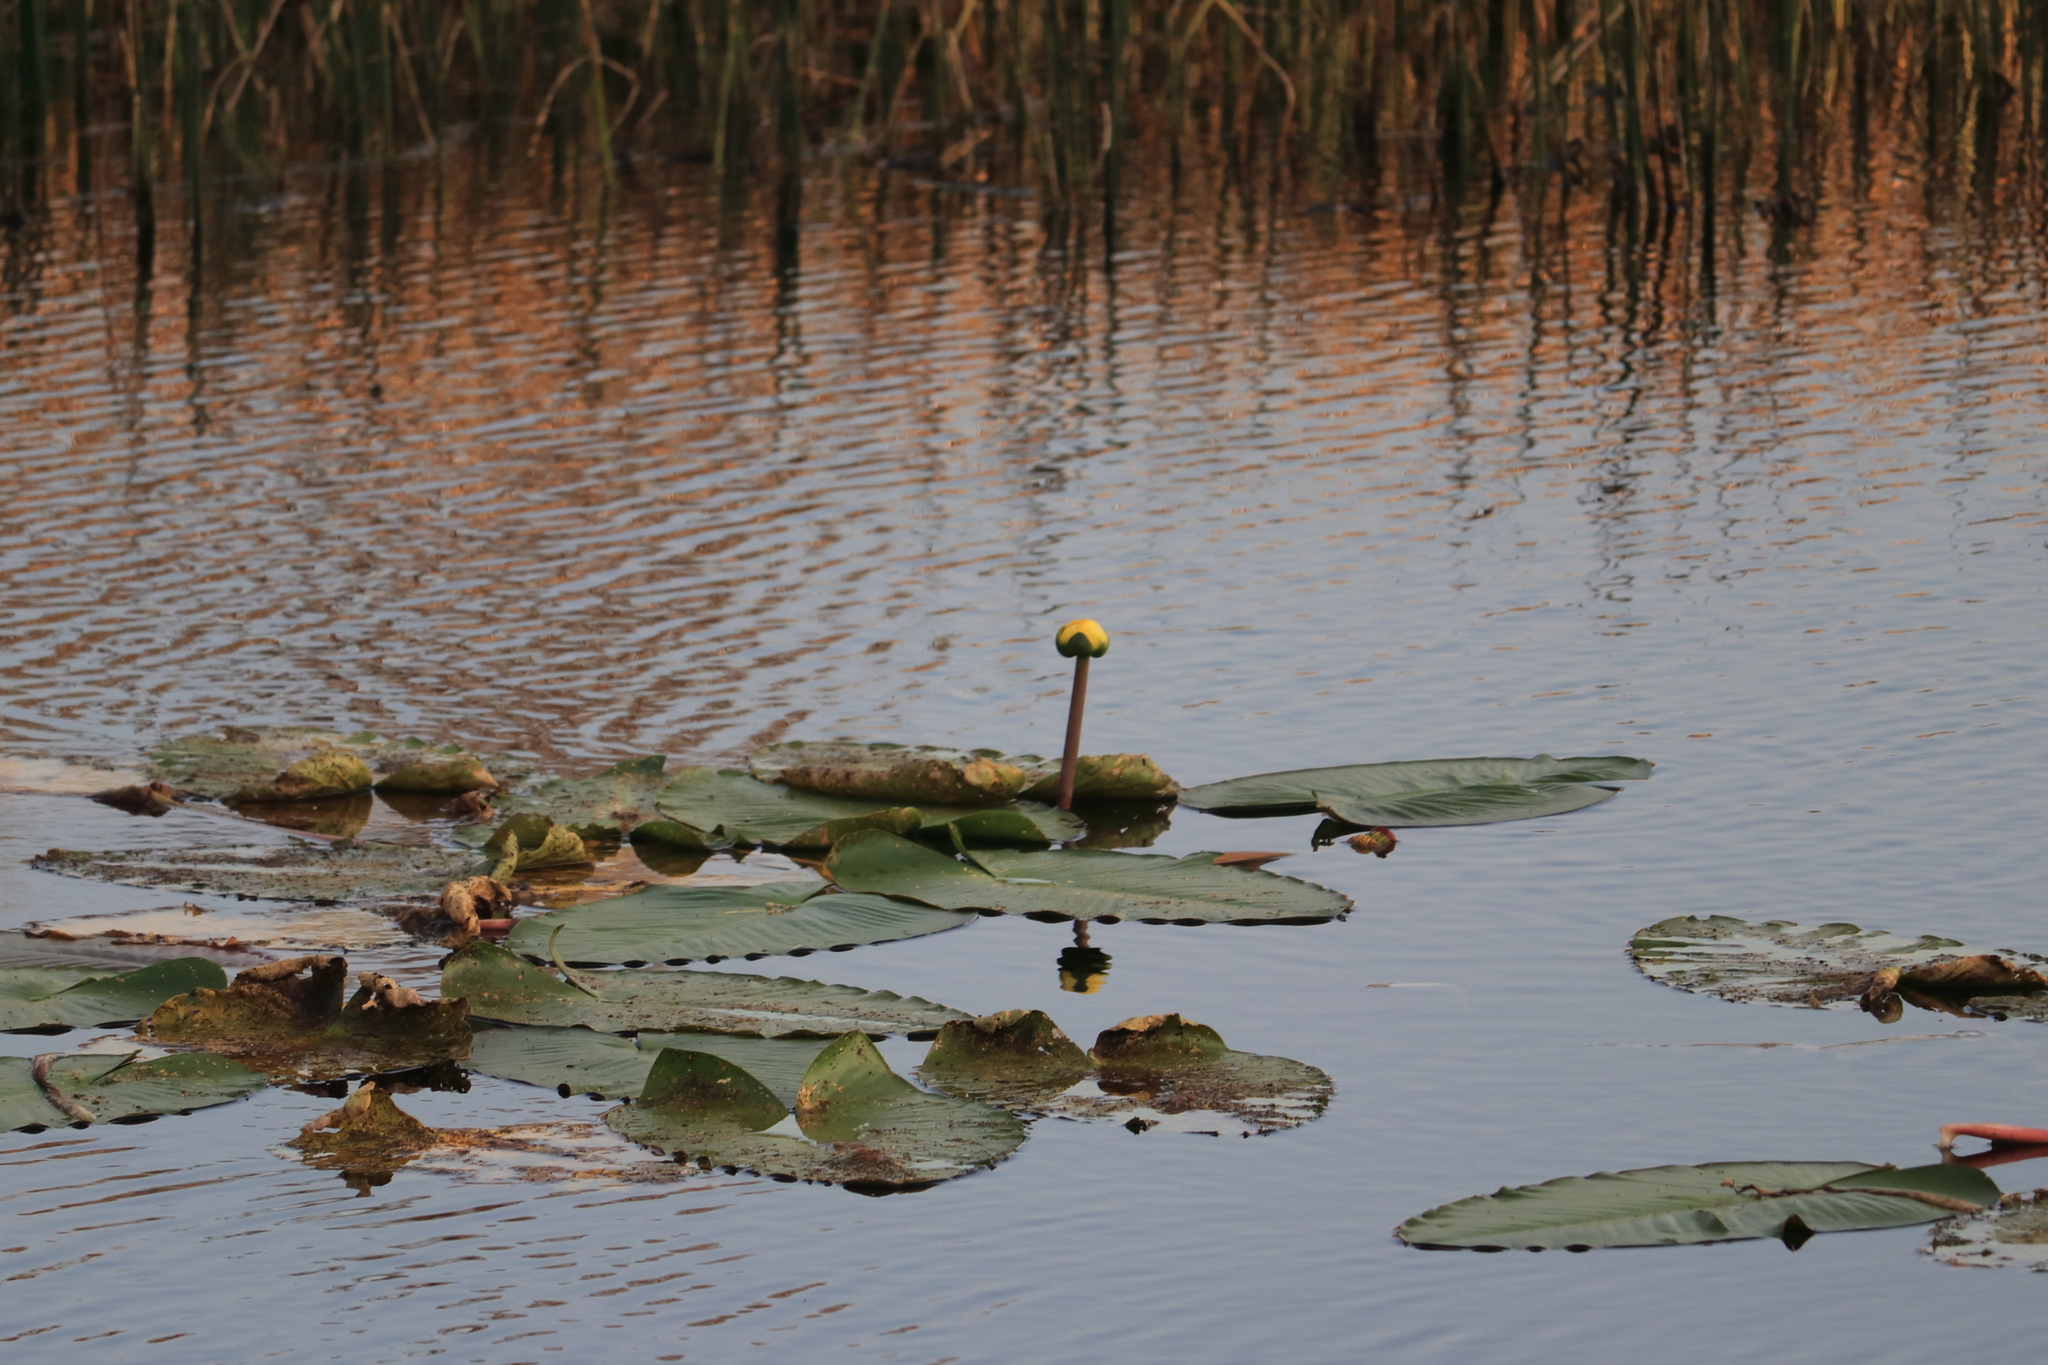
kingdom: Plantae
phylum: Tracheophyta
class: Magnoliopsida
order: Nymphaeales
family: Nymphaeaceae
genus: Nuphar
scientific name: Nuphar advena
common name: Spatter-dock
